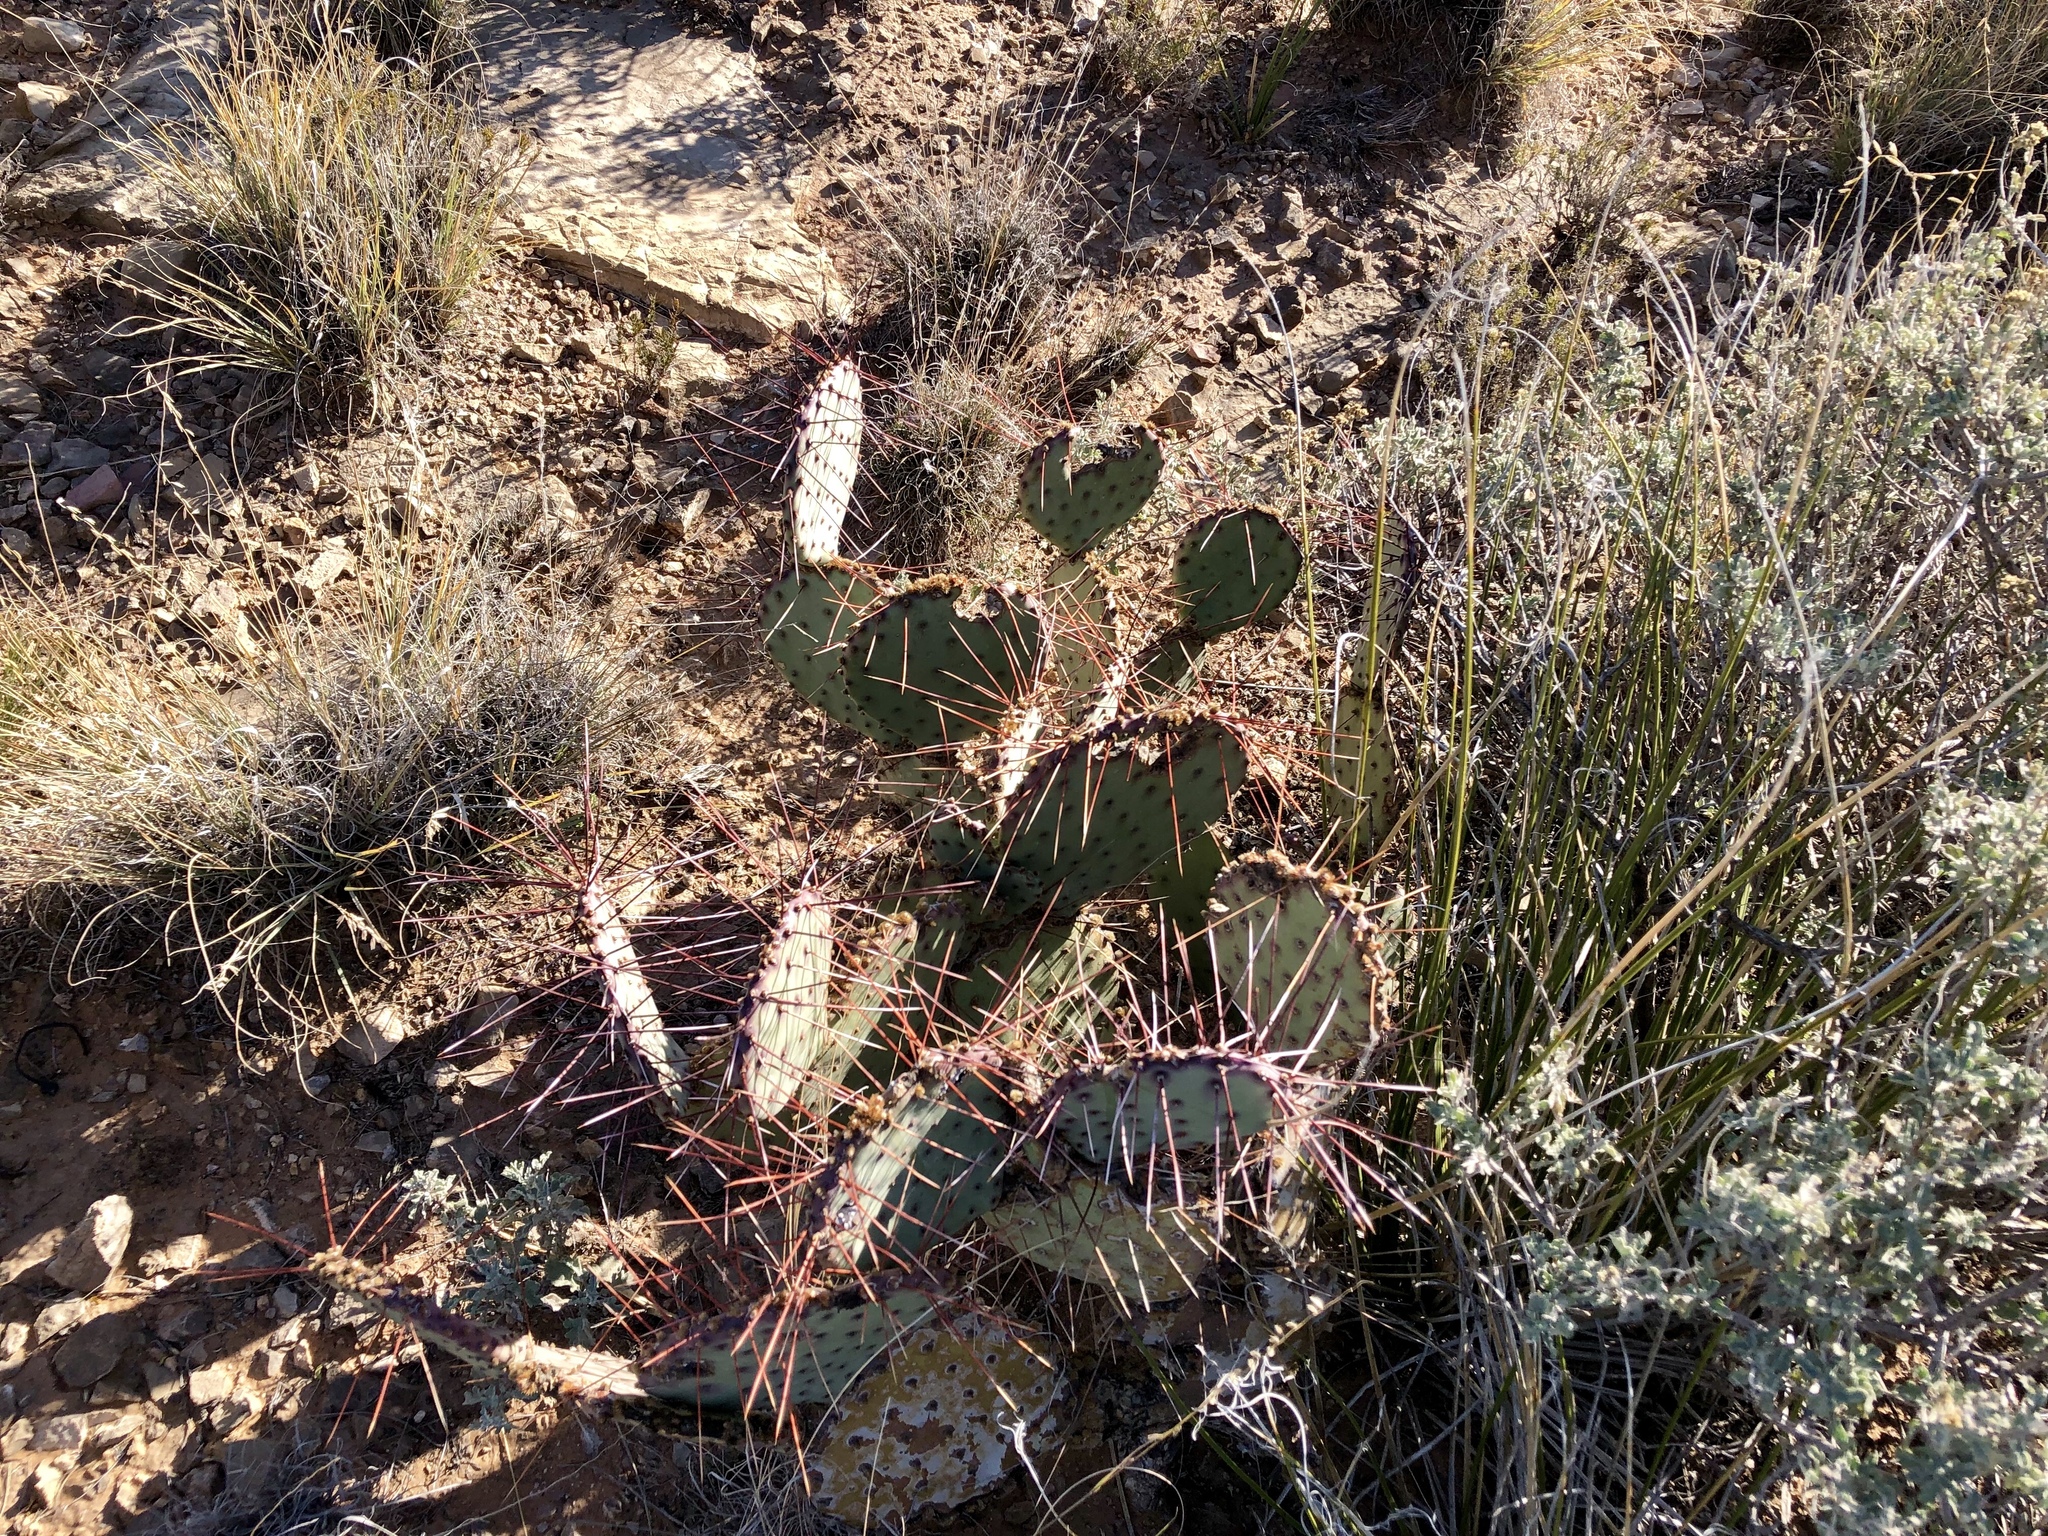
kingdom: Plantae
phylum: Tracheophyta
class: Magnoliopsida
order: Caryophyllales
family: Cactaceae
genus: Opuntia
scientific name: Opuntia macrocentra
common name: Purple prickly-pear
